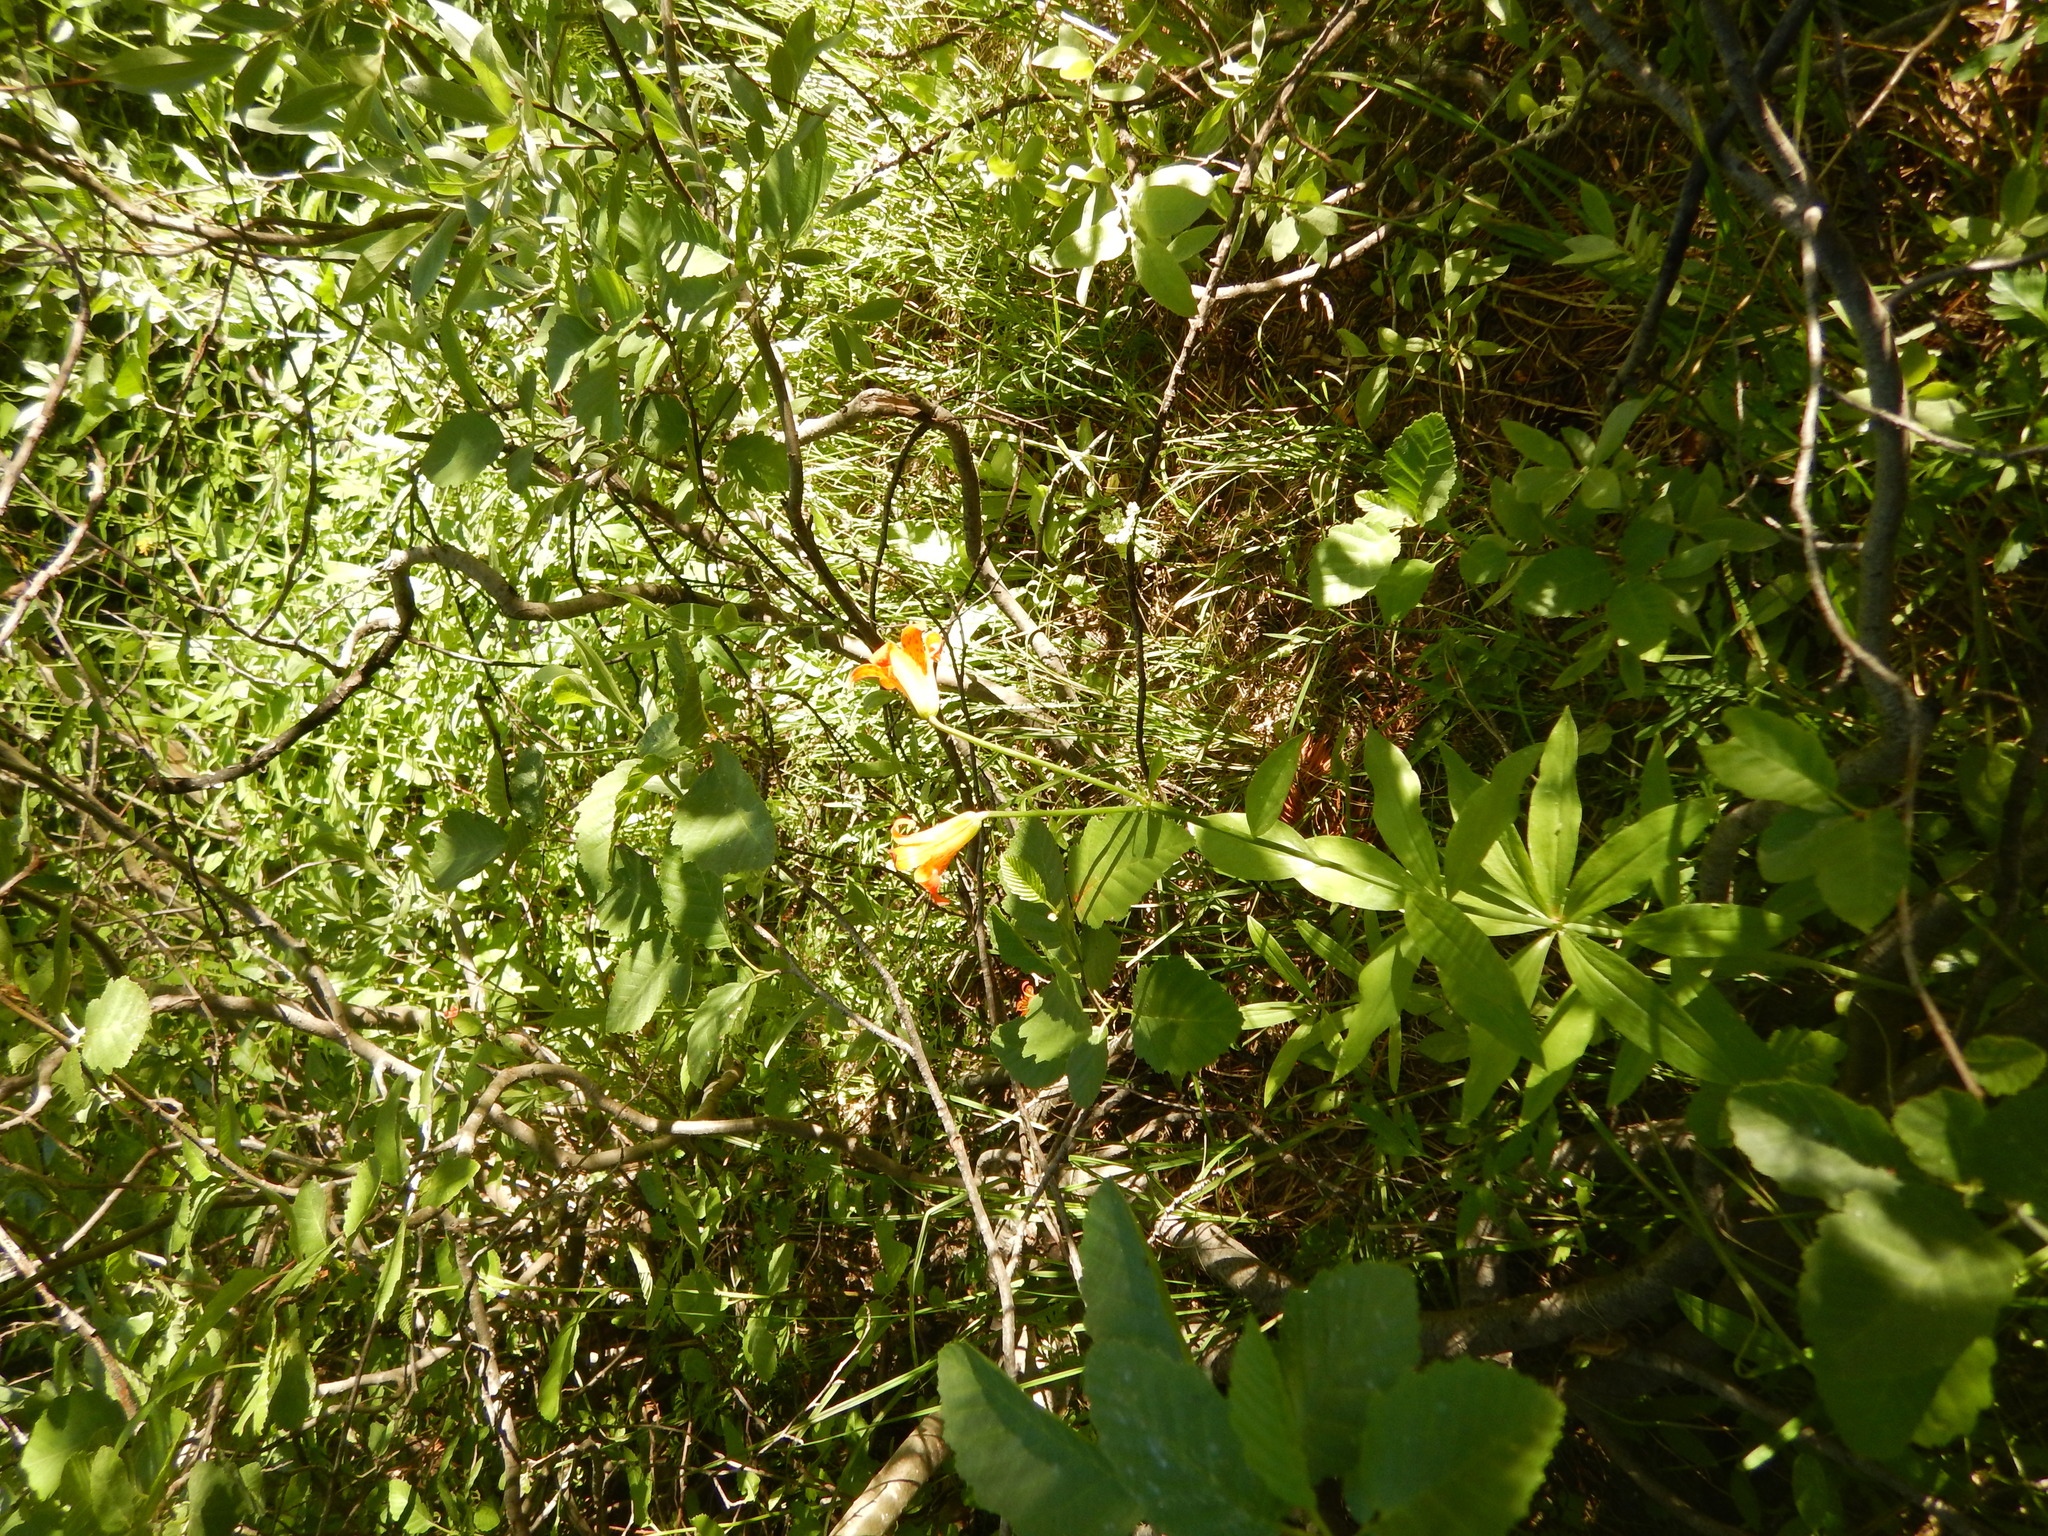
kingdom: Plantae
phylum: Tracheophyta
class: Liliopsida
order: Liliales
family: Liliaceae
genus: Lilium
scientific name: Lilium parvum
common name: Alpine lily
